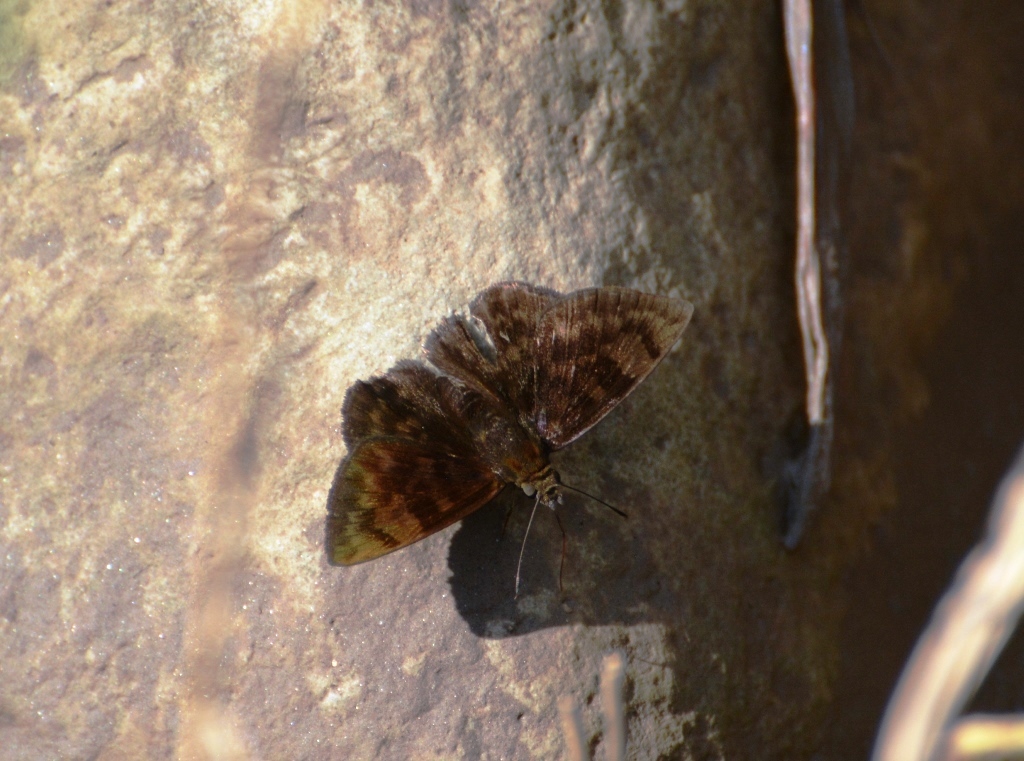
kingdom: Animalia
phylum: Arthropoda
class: Insecta
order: Lepidoptera
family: Hesperiidae
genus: Pachyneuria
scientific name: Pachyneuria licisca
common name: Immaculate tufted-skipper
